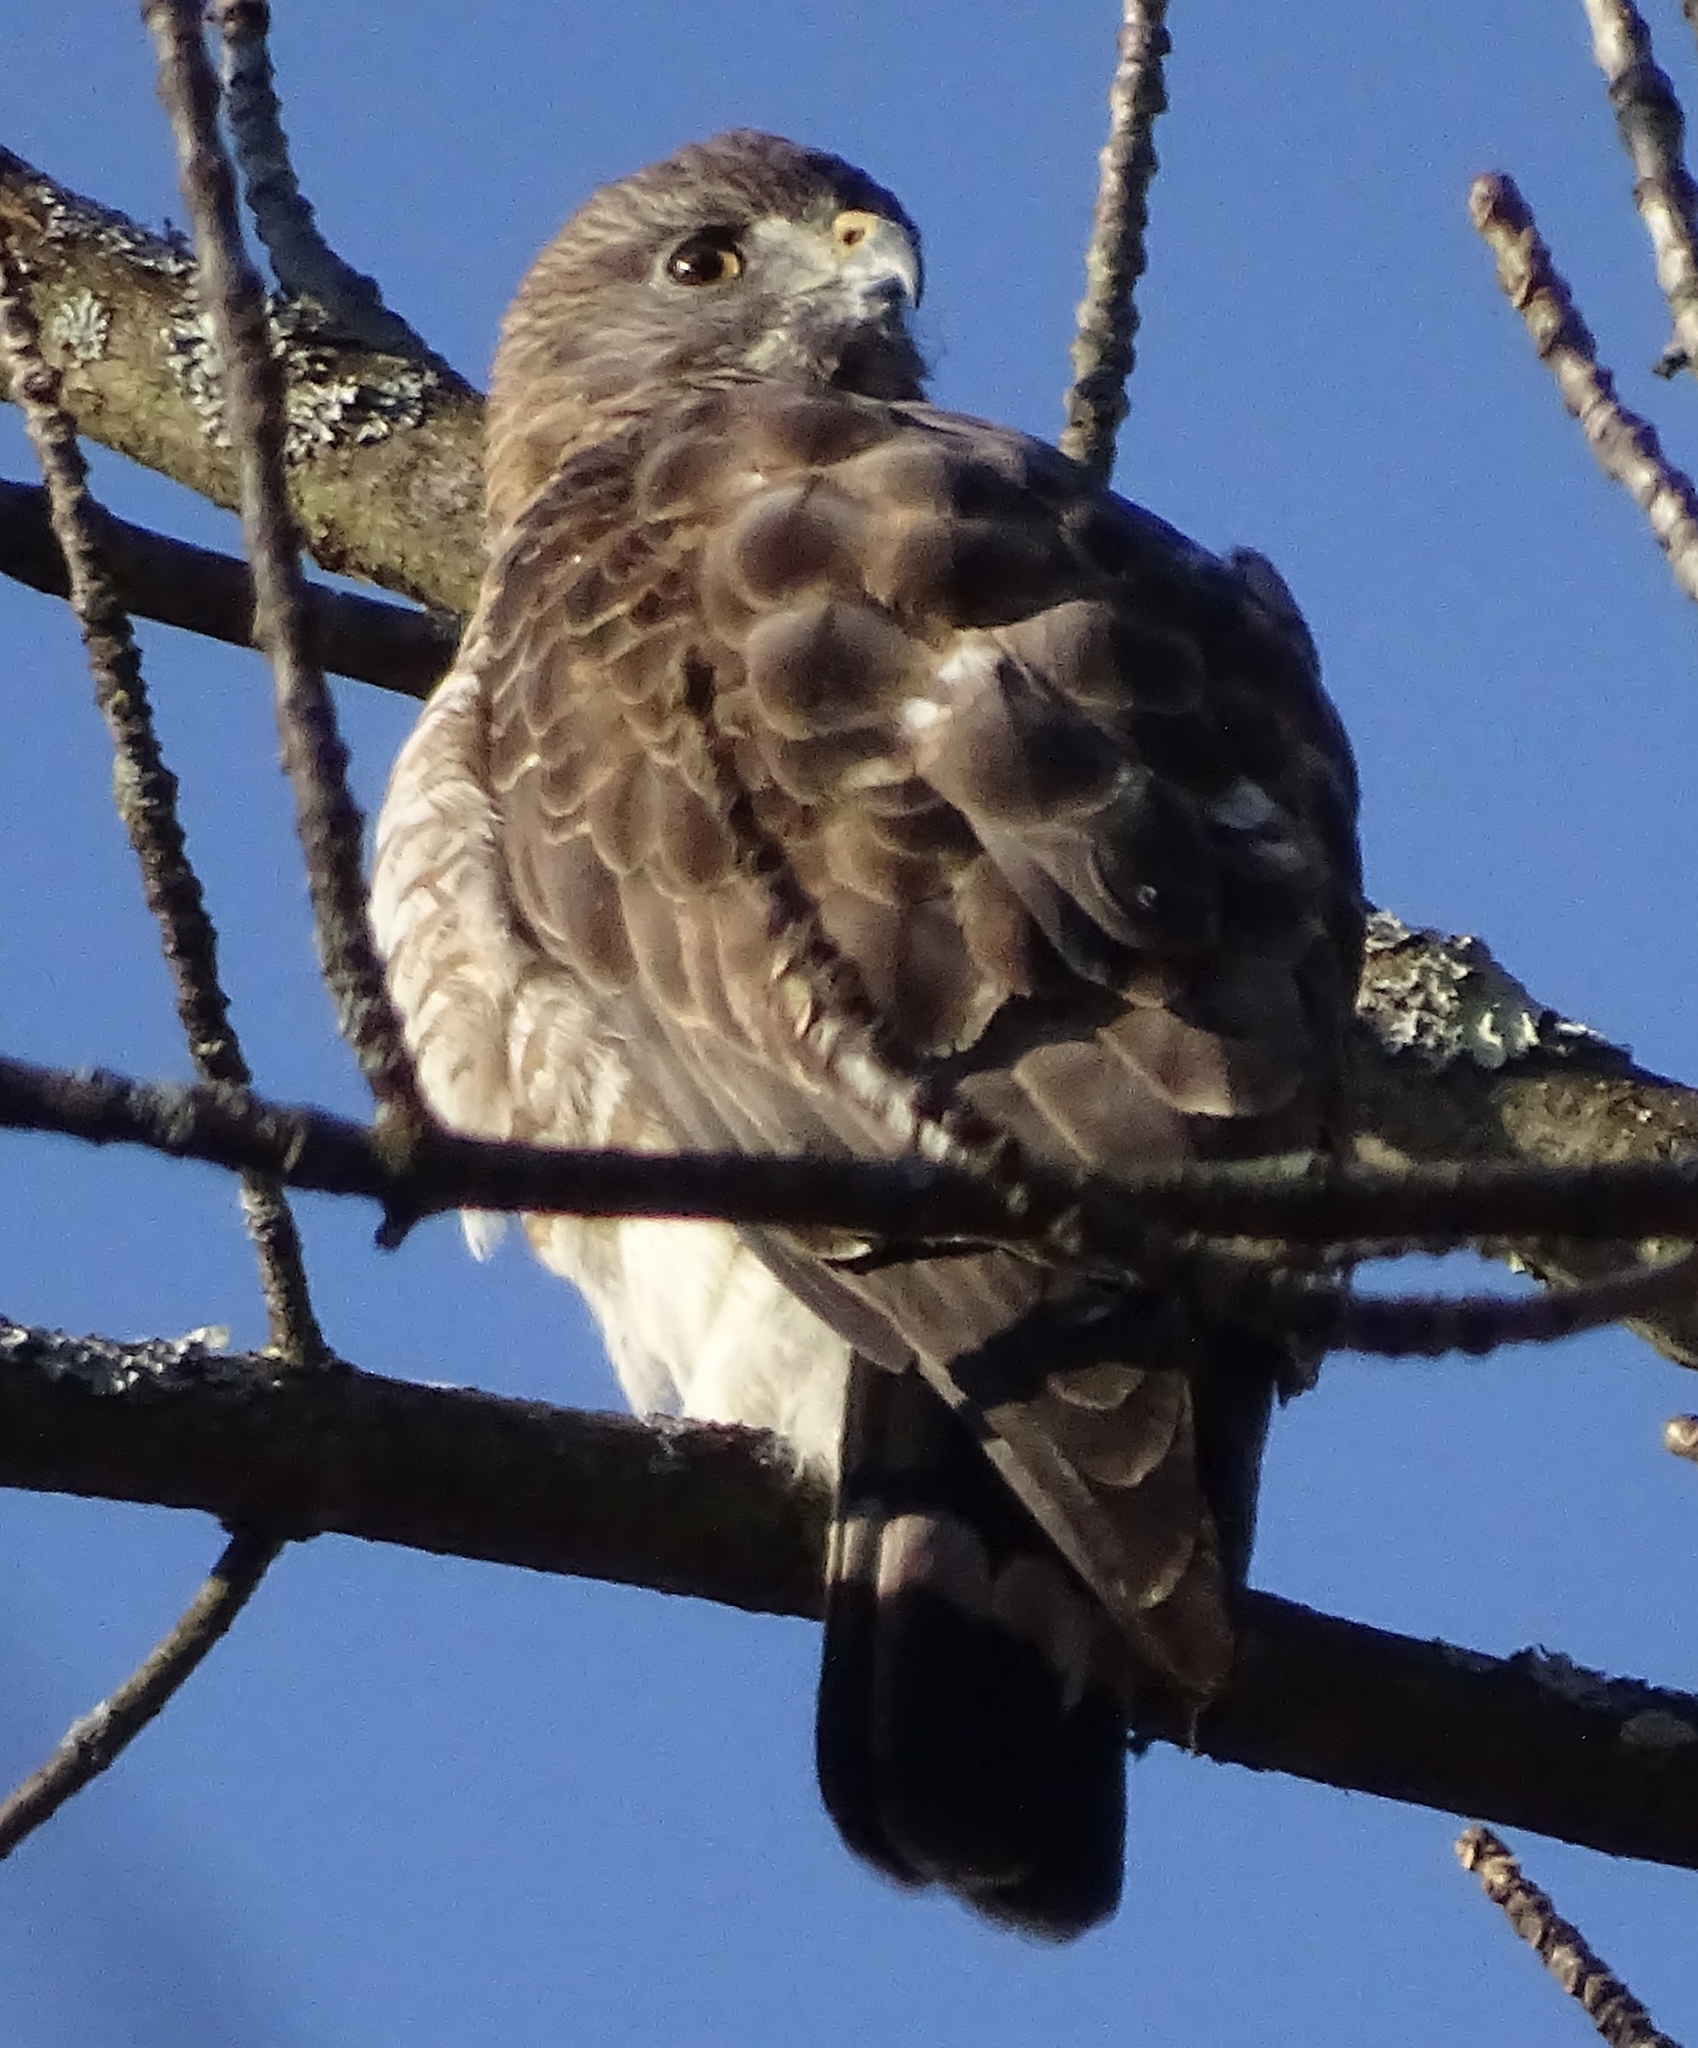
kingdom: Animalia
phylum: Chordata
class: Aves
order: Accipitriformes
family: Accipitridae
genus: Buteo
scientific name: Buteo platypterus
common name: Broad-winged hawk
